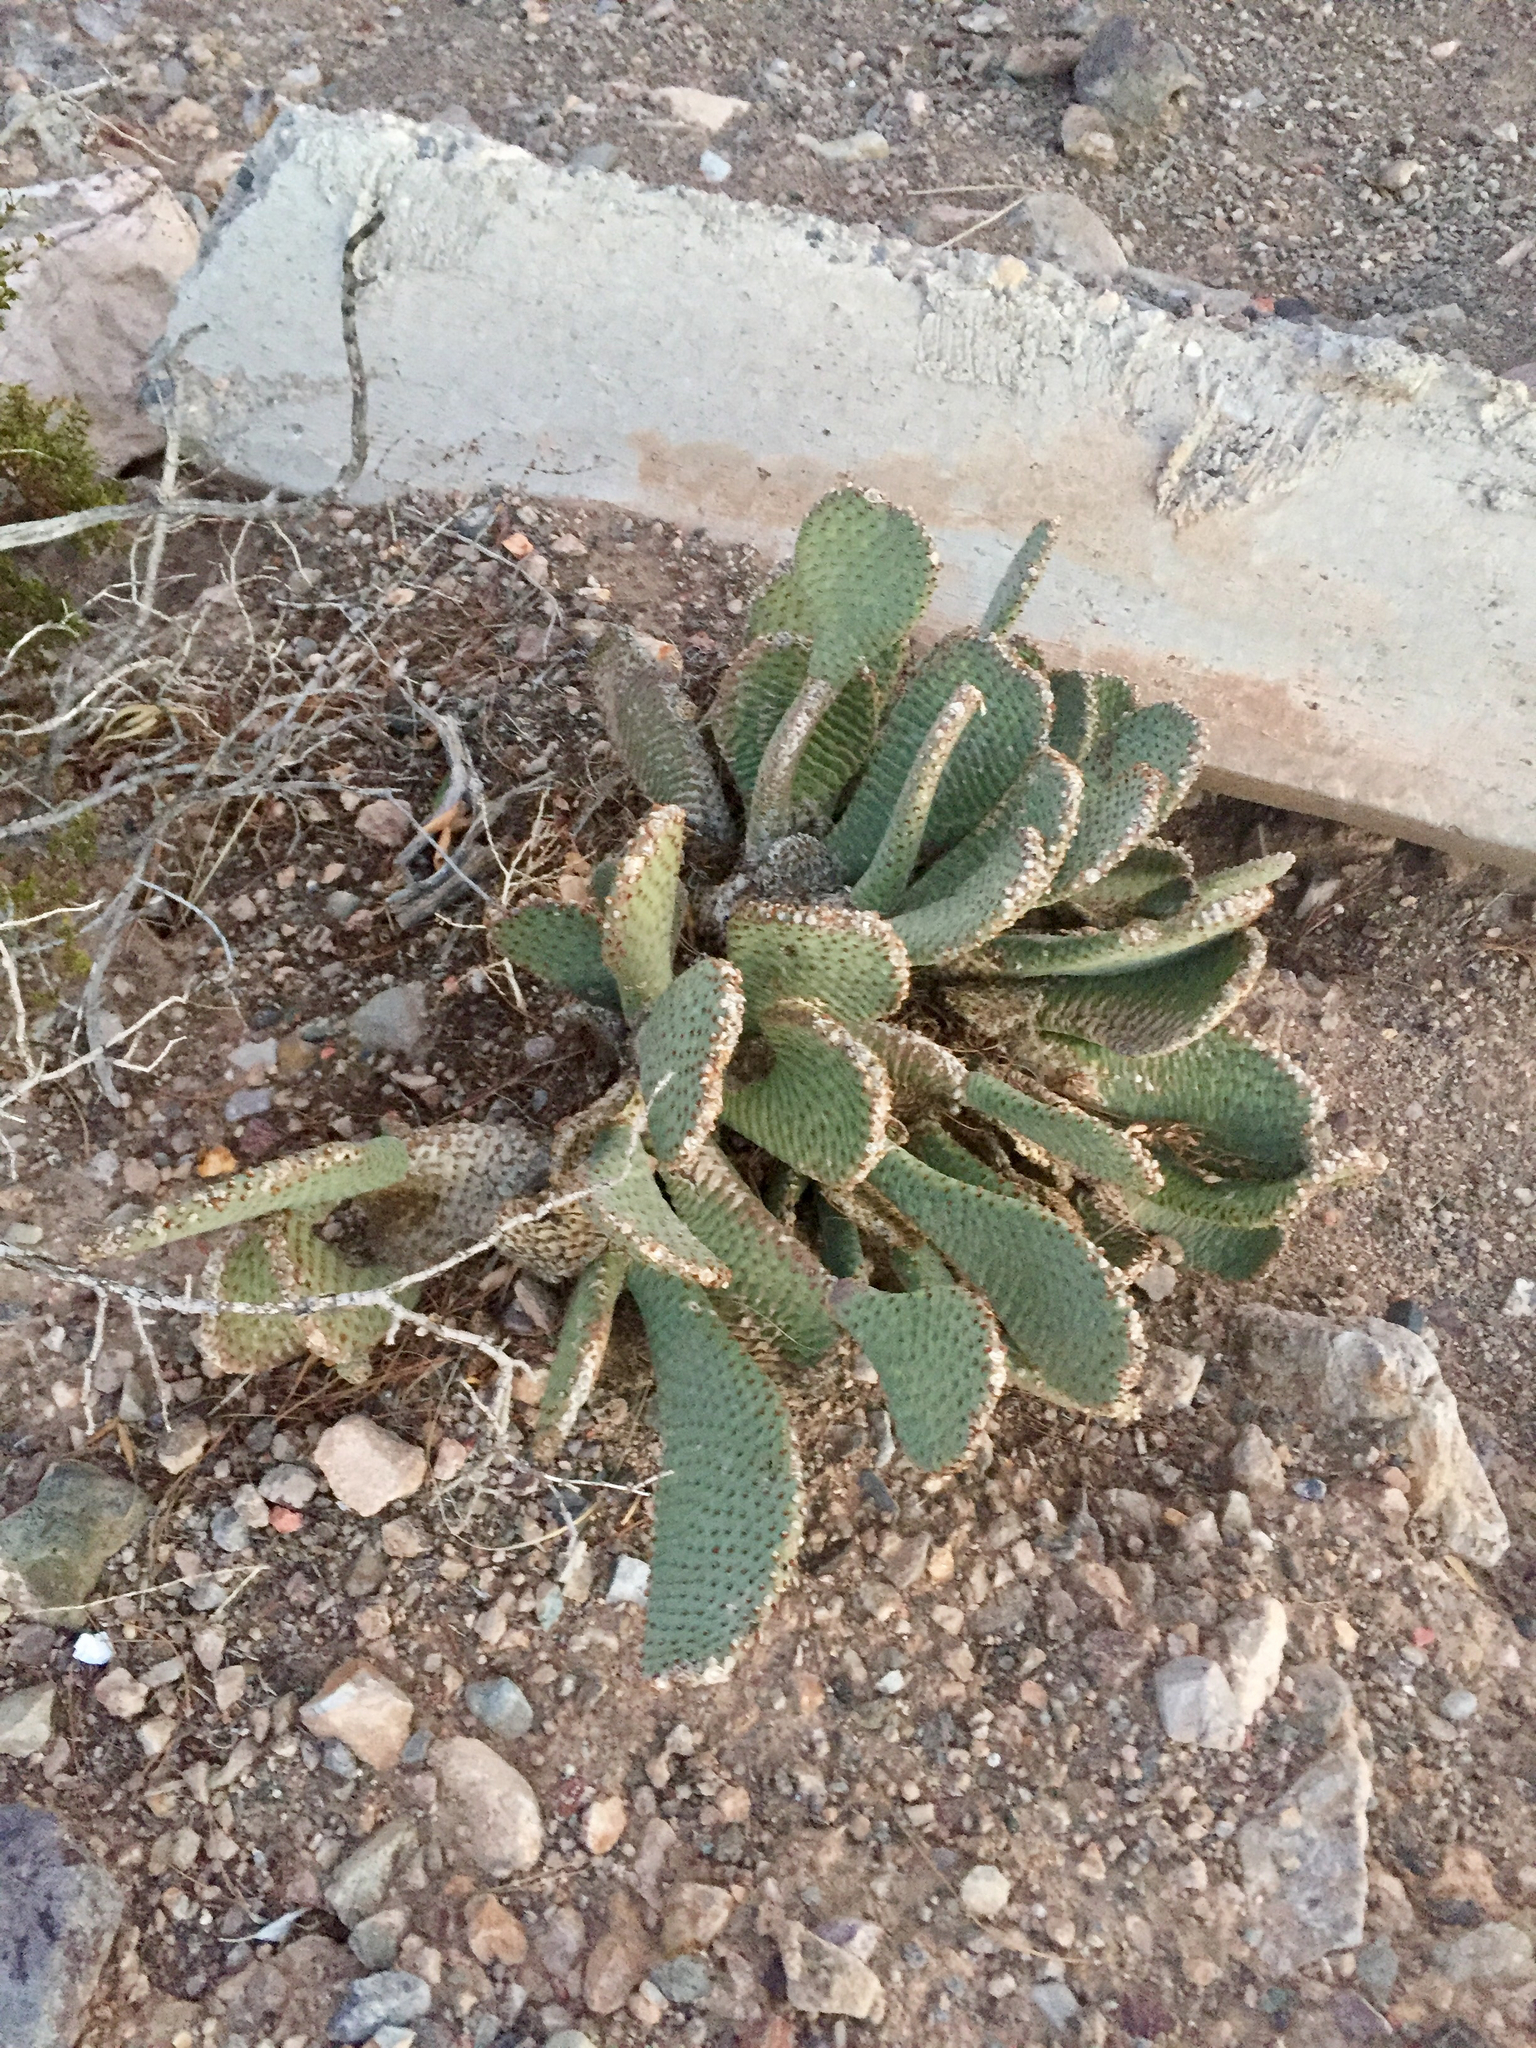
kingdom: Plantae
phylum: Tracheophyta
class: Magnoliopsida
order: Caryophyllales
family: Cactaceae
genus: Opuntia
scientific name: Opuntia basilaris
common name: Beavertail prickly-pear
